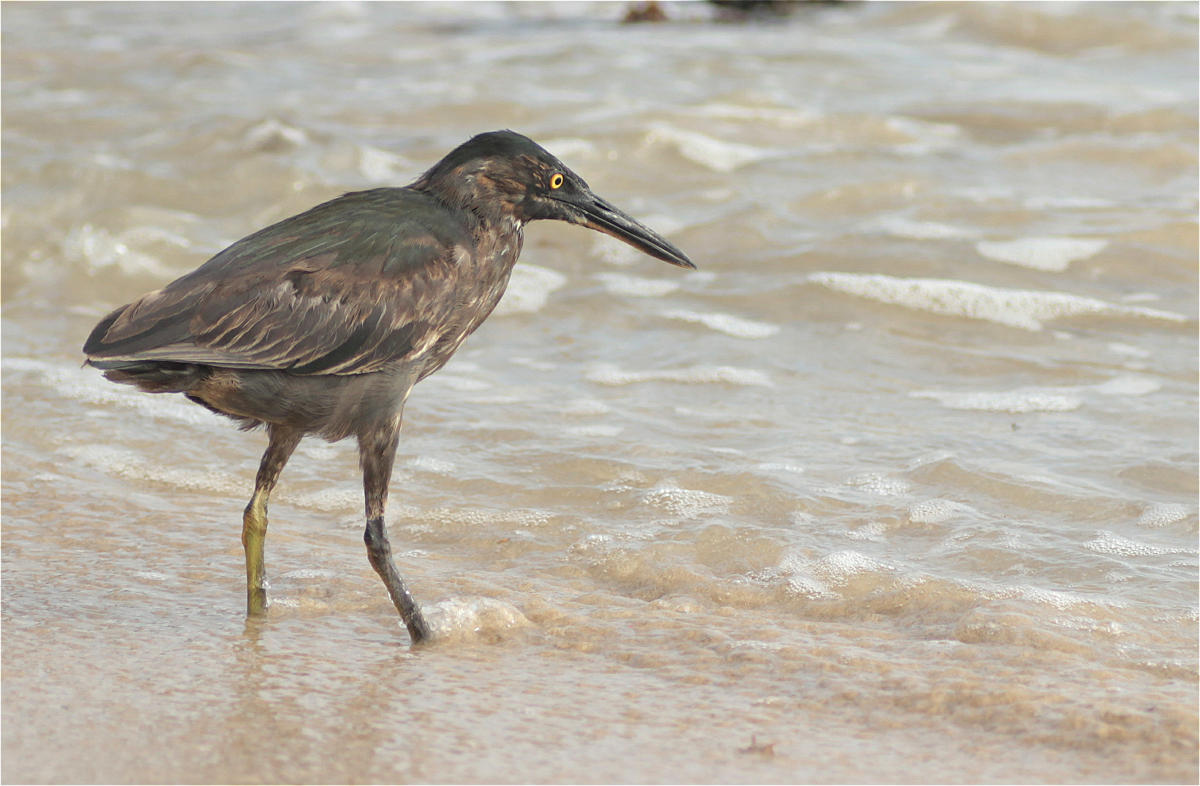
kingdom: Animalia
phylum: Chordata
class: Aves
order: Pelecaniformes
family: Ardeidae
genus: Butorides
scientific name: Butorides striata
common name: Striated heron
